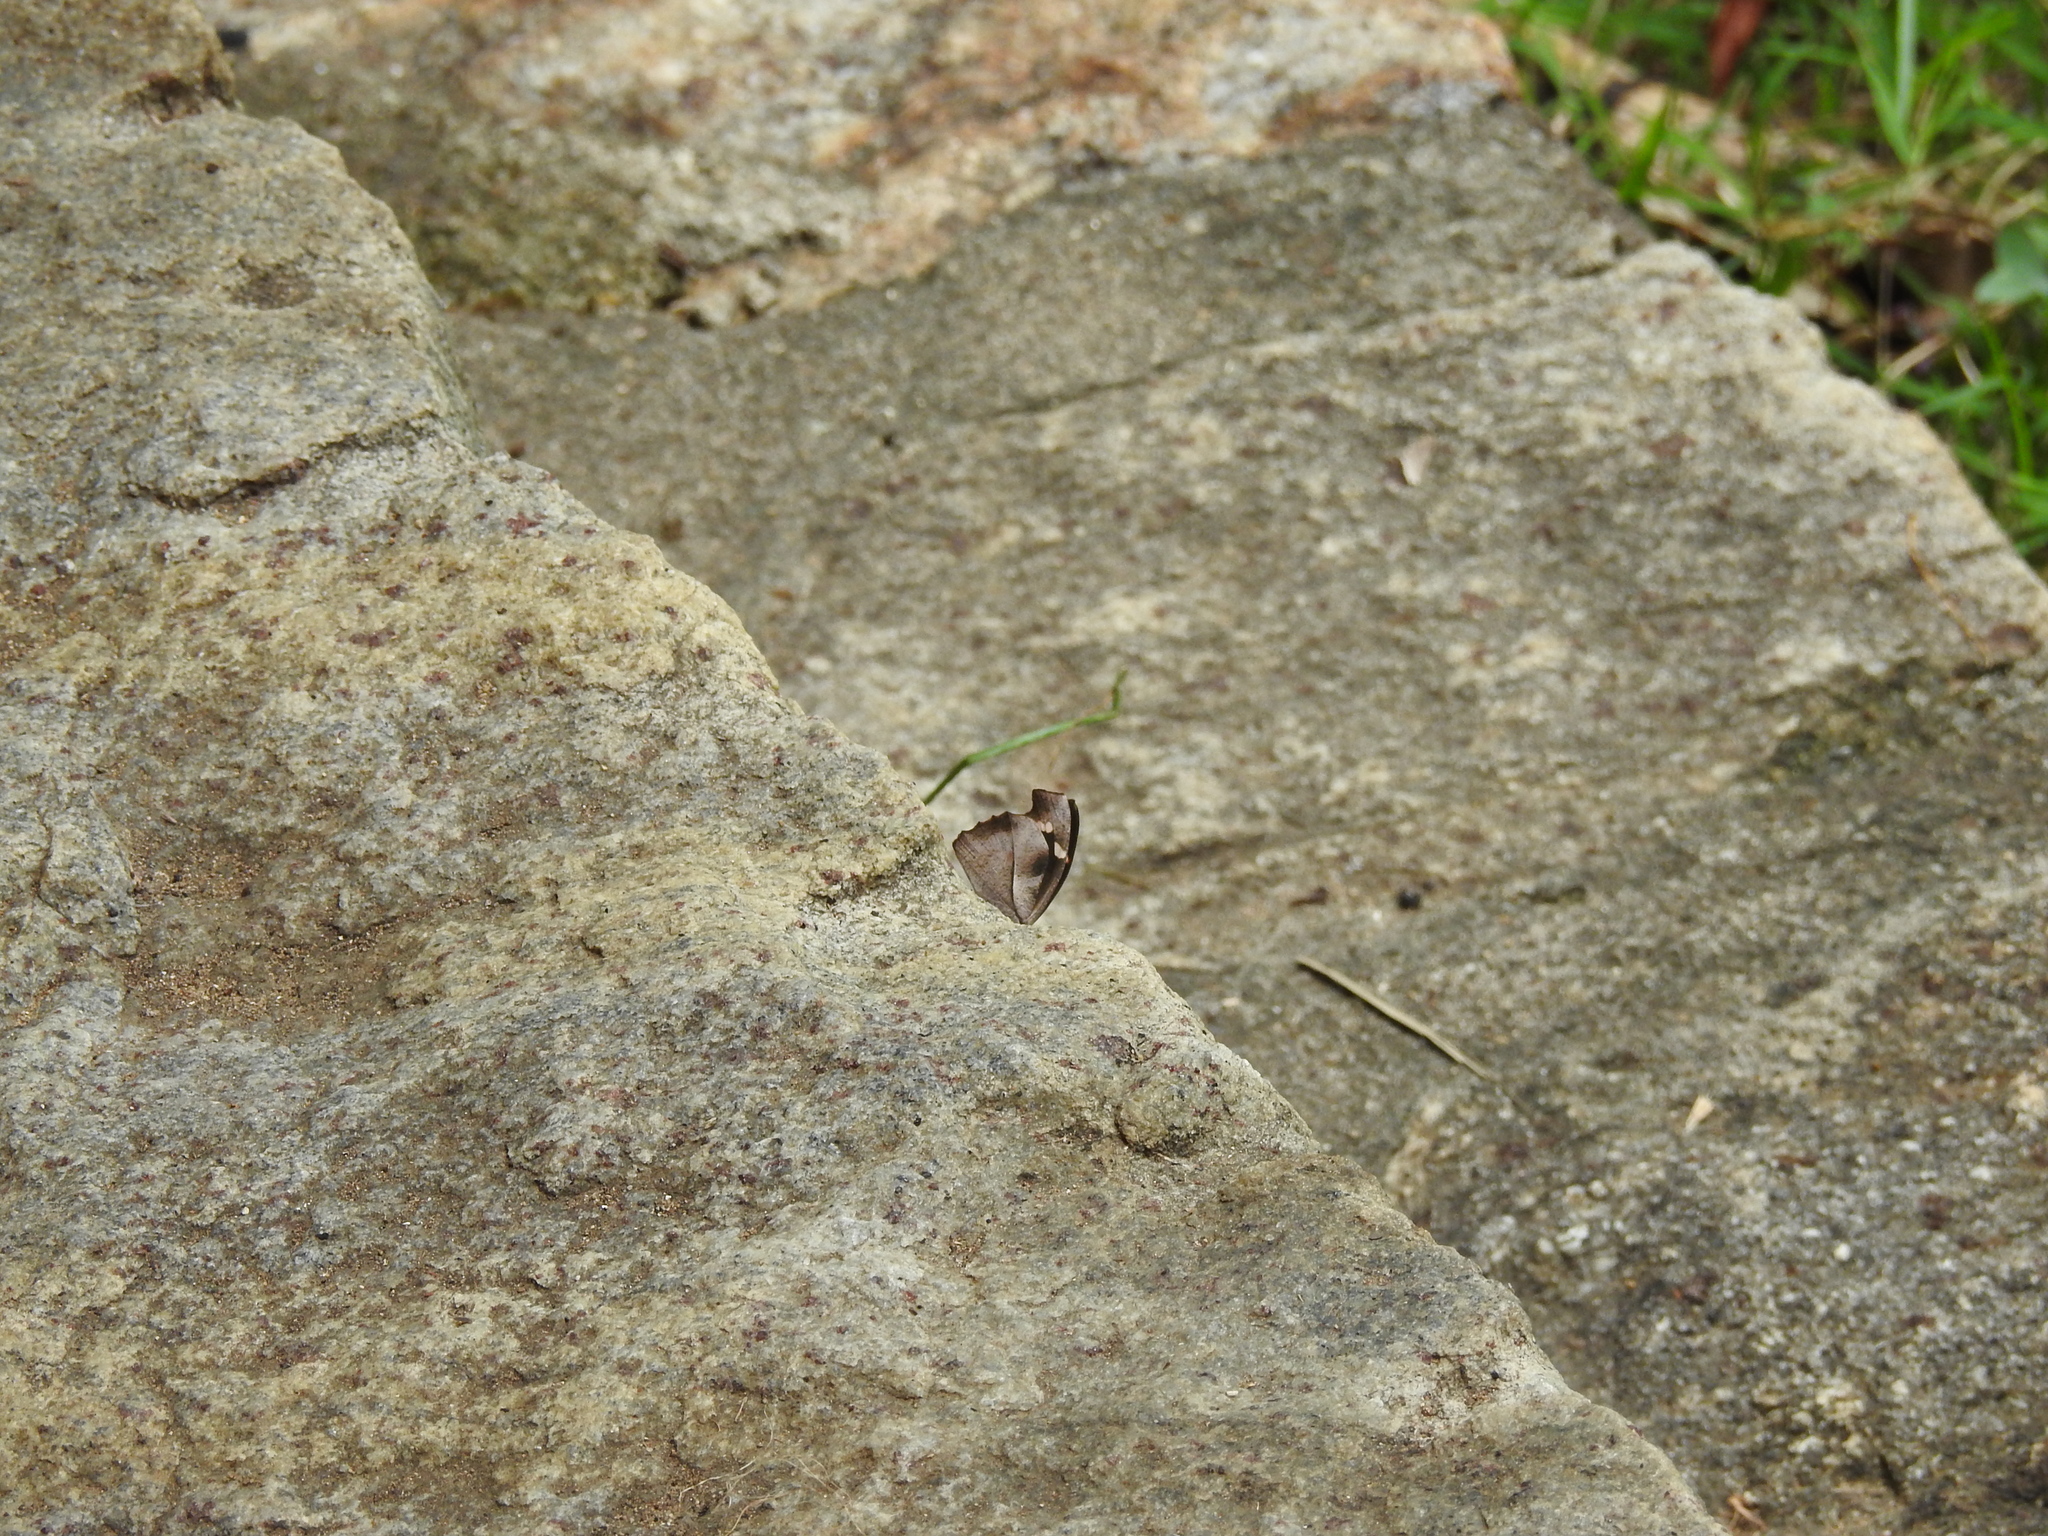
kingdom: Animalia
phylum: Arthropoda
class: Insecta
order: Lepidoptera
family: Nymphalidae
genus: Libythea
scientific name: Libythea myrrha
